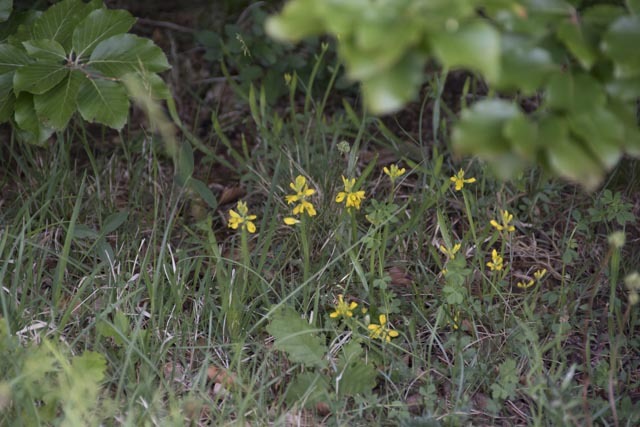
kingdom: Plantae
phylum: Tracheophyta
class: Magnoliopsida
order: Fabales
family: Fabaceae
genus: Genista
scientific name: Genista sagittalis
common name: Winged greenweed
